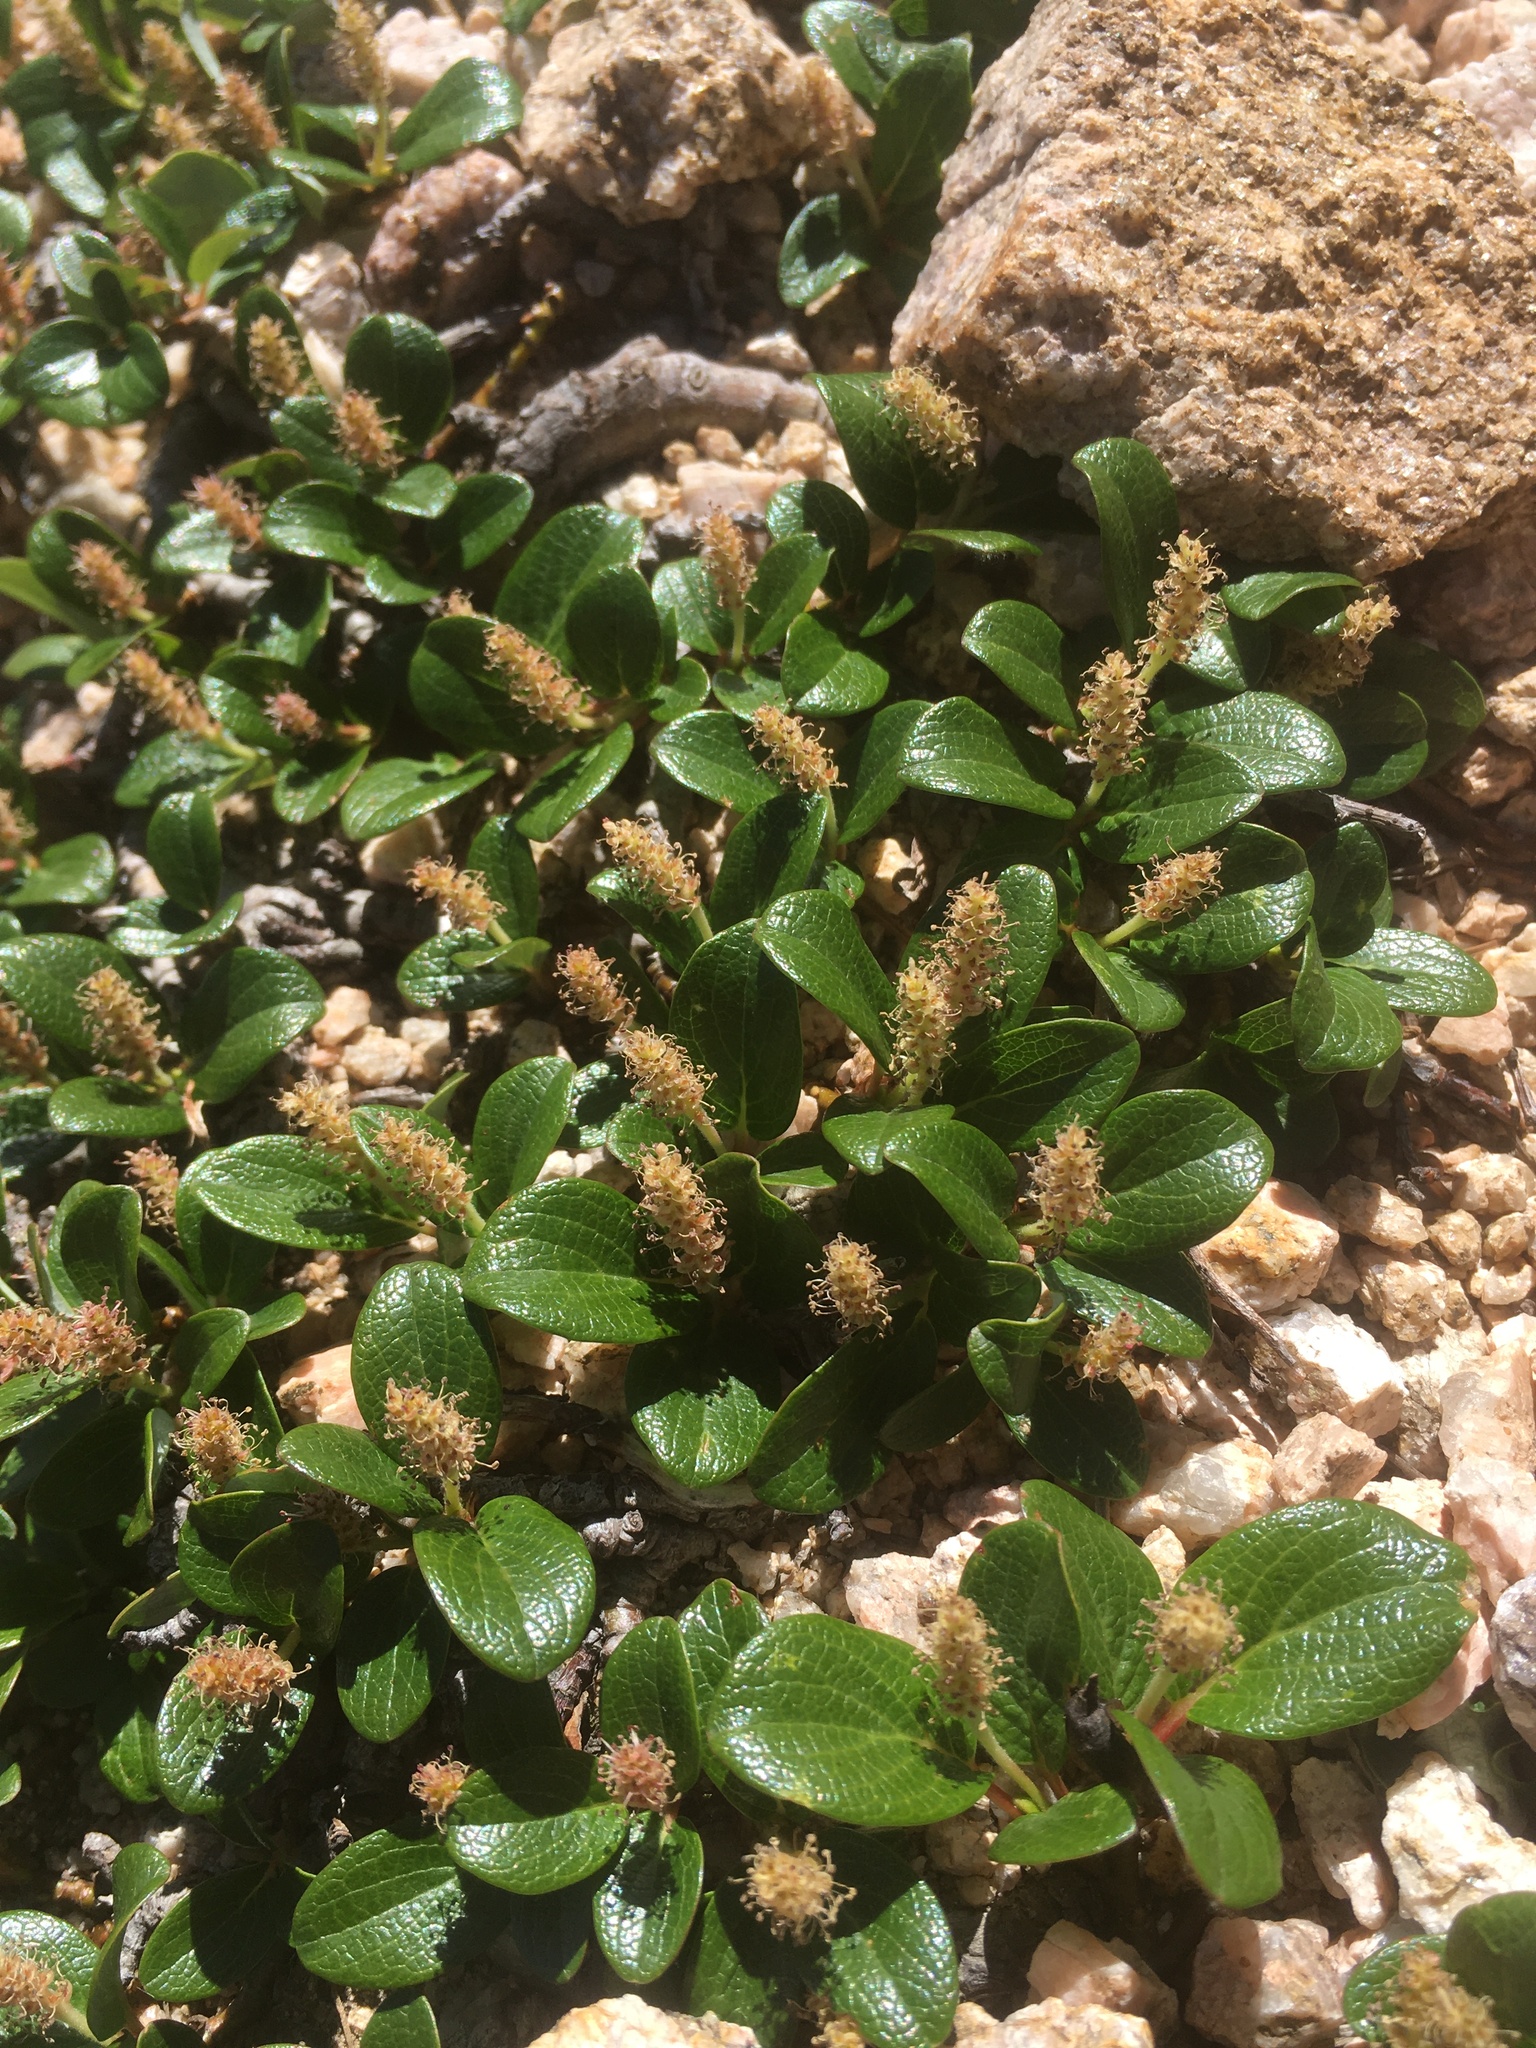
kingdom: Plantae
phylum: Tracheophyta
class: Magnoliopsida
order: Malpighiales
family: Salicaceae
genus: Salix
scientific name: Salix nivalis
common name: Dwarf snow willow
